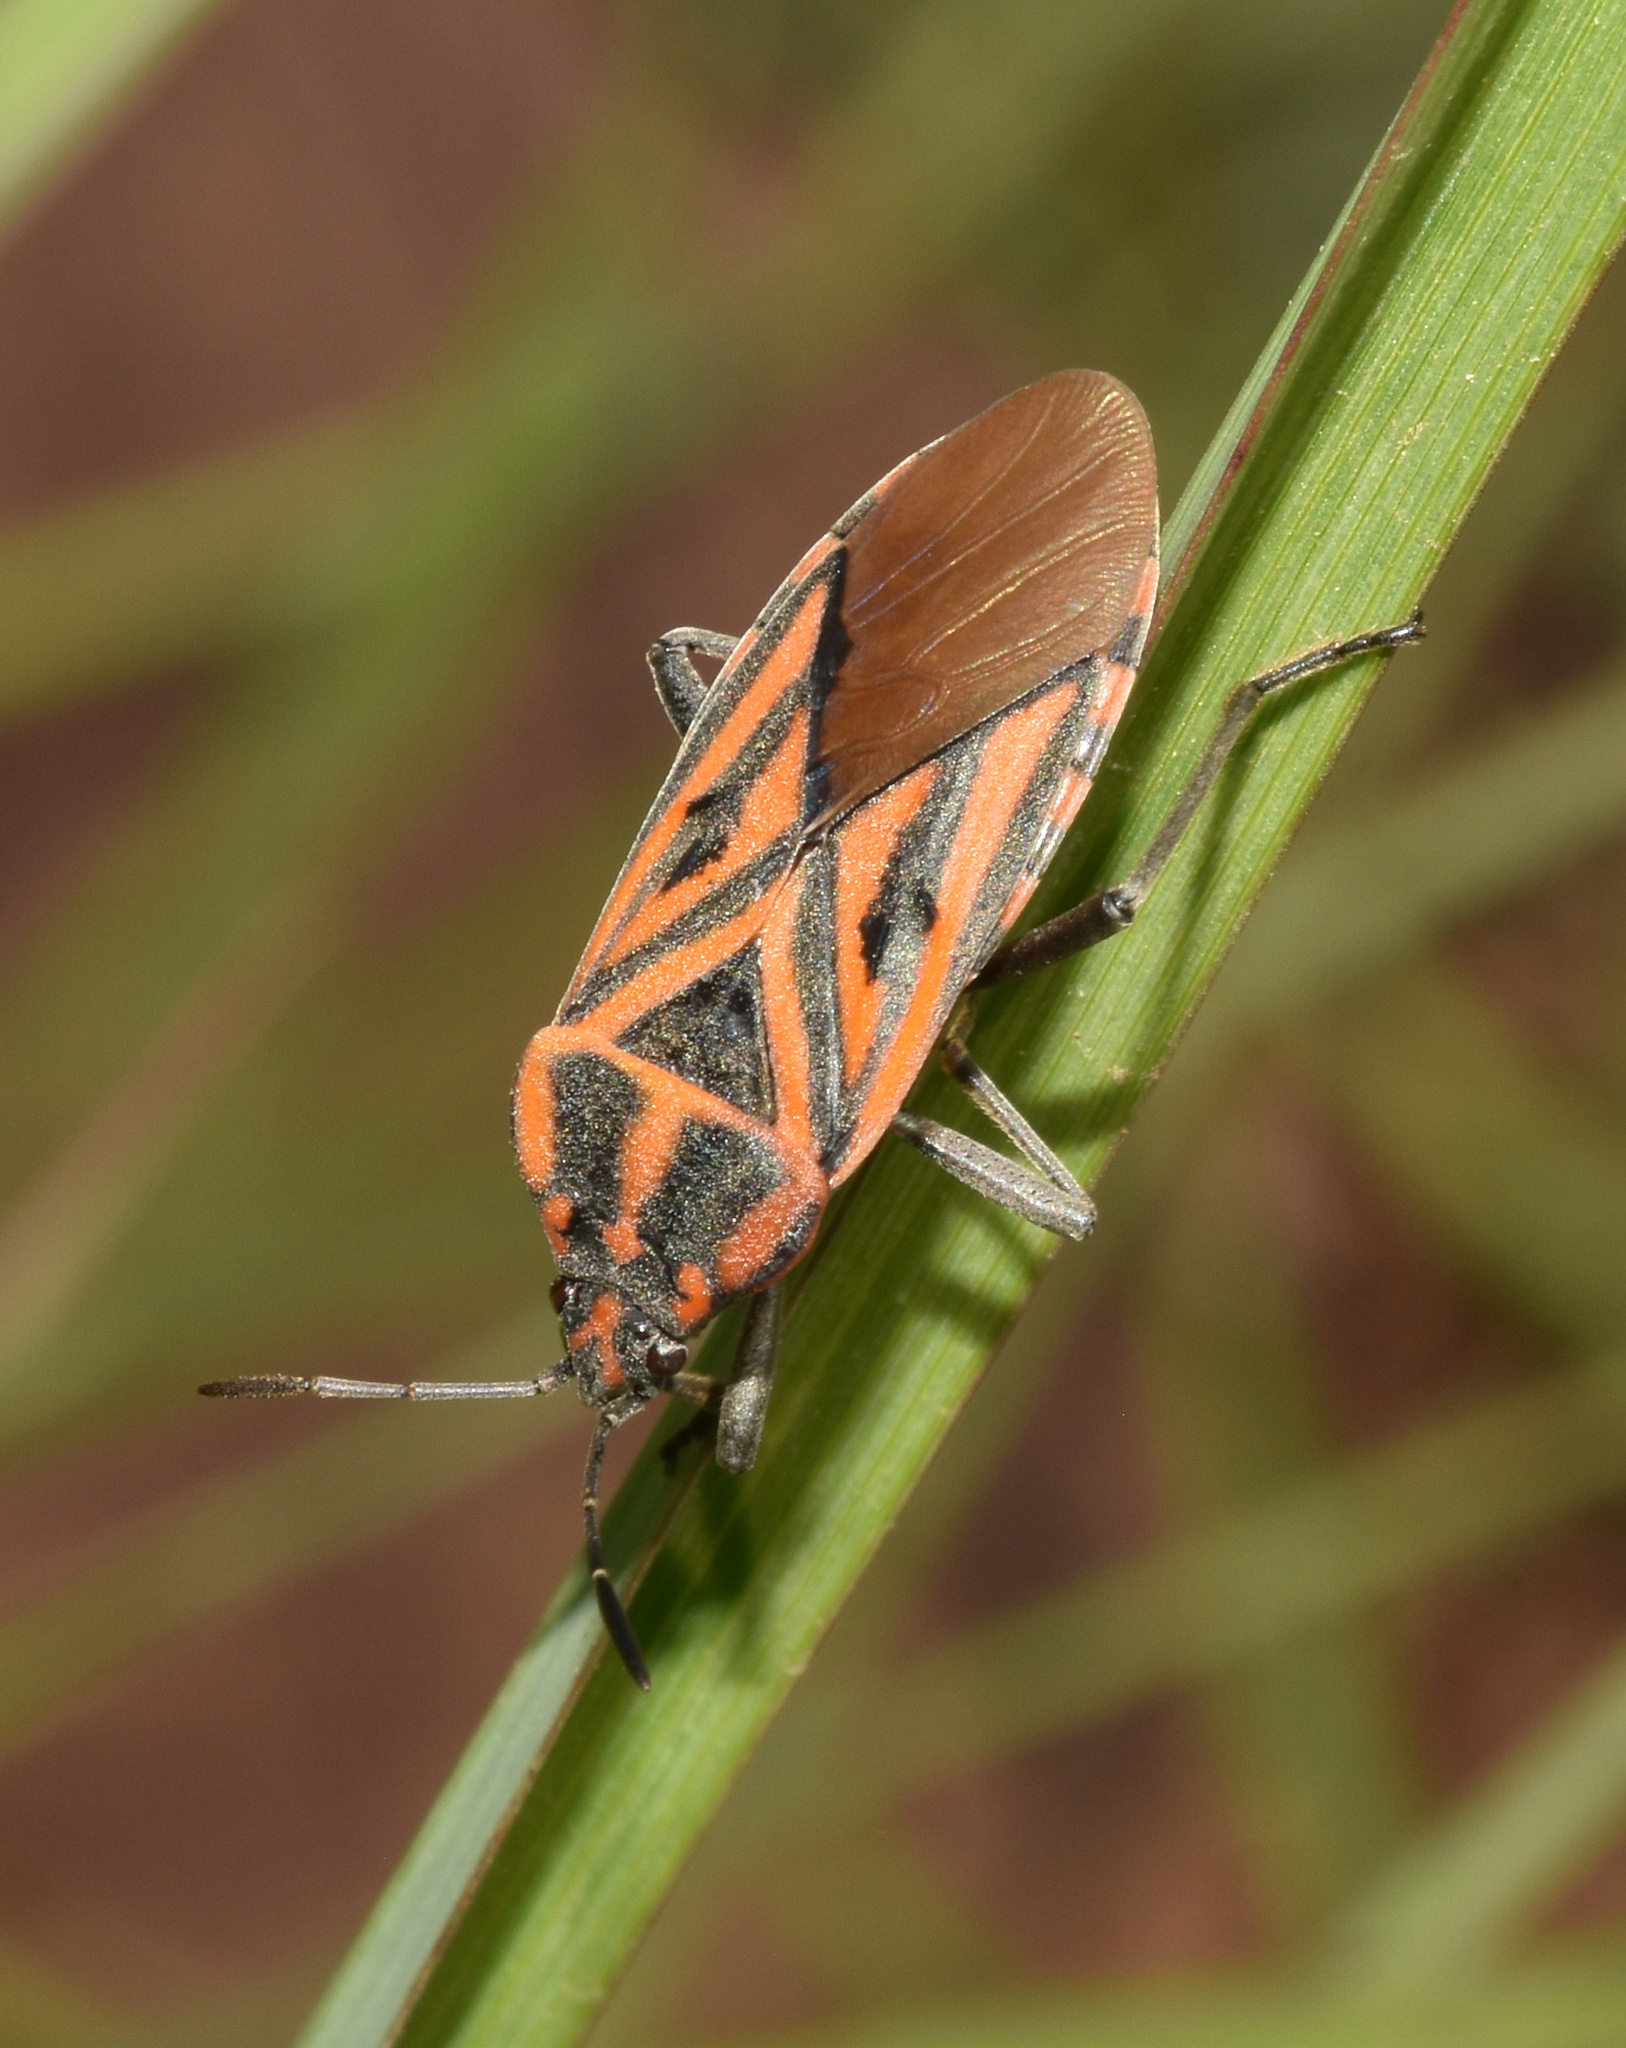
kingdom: Animalia
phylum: Arthropoda
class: Insecta
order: Hemiptera
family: Lygaeidae
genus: Spilostethus
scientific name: Spilostethus rivularis
